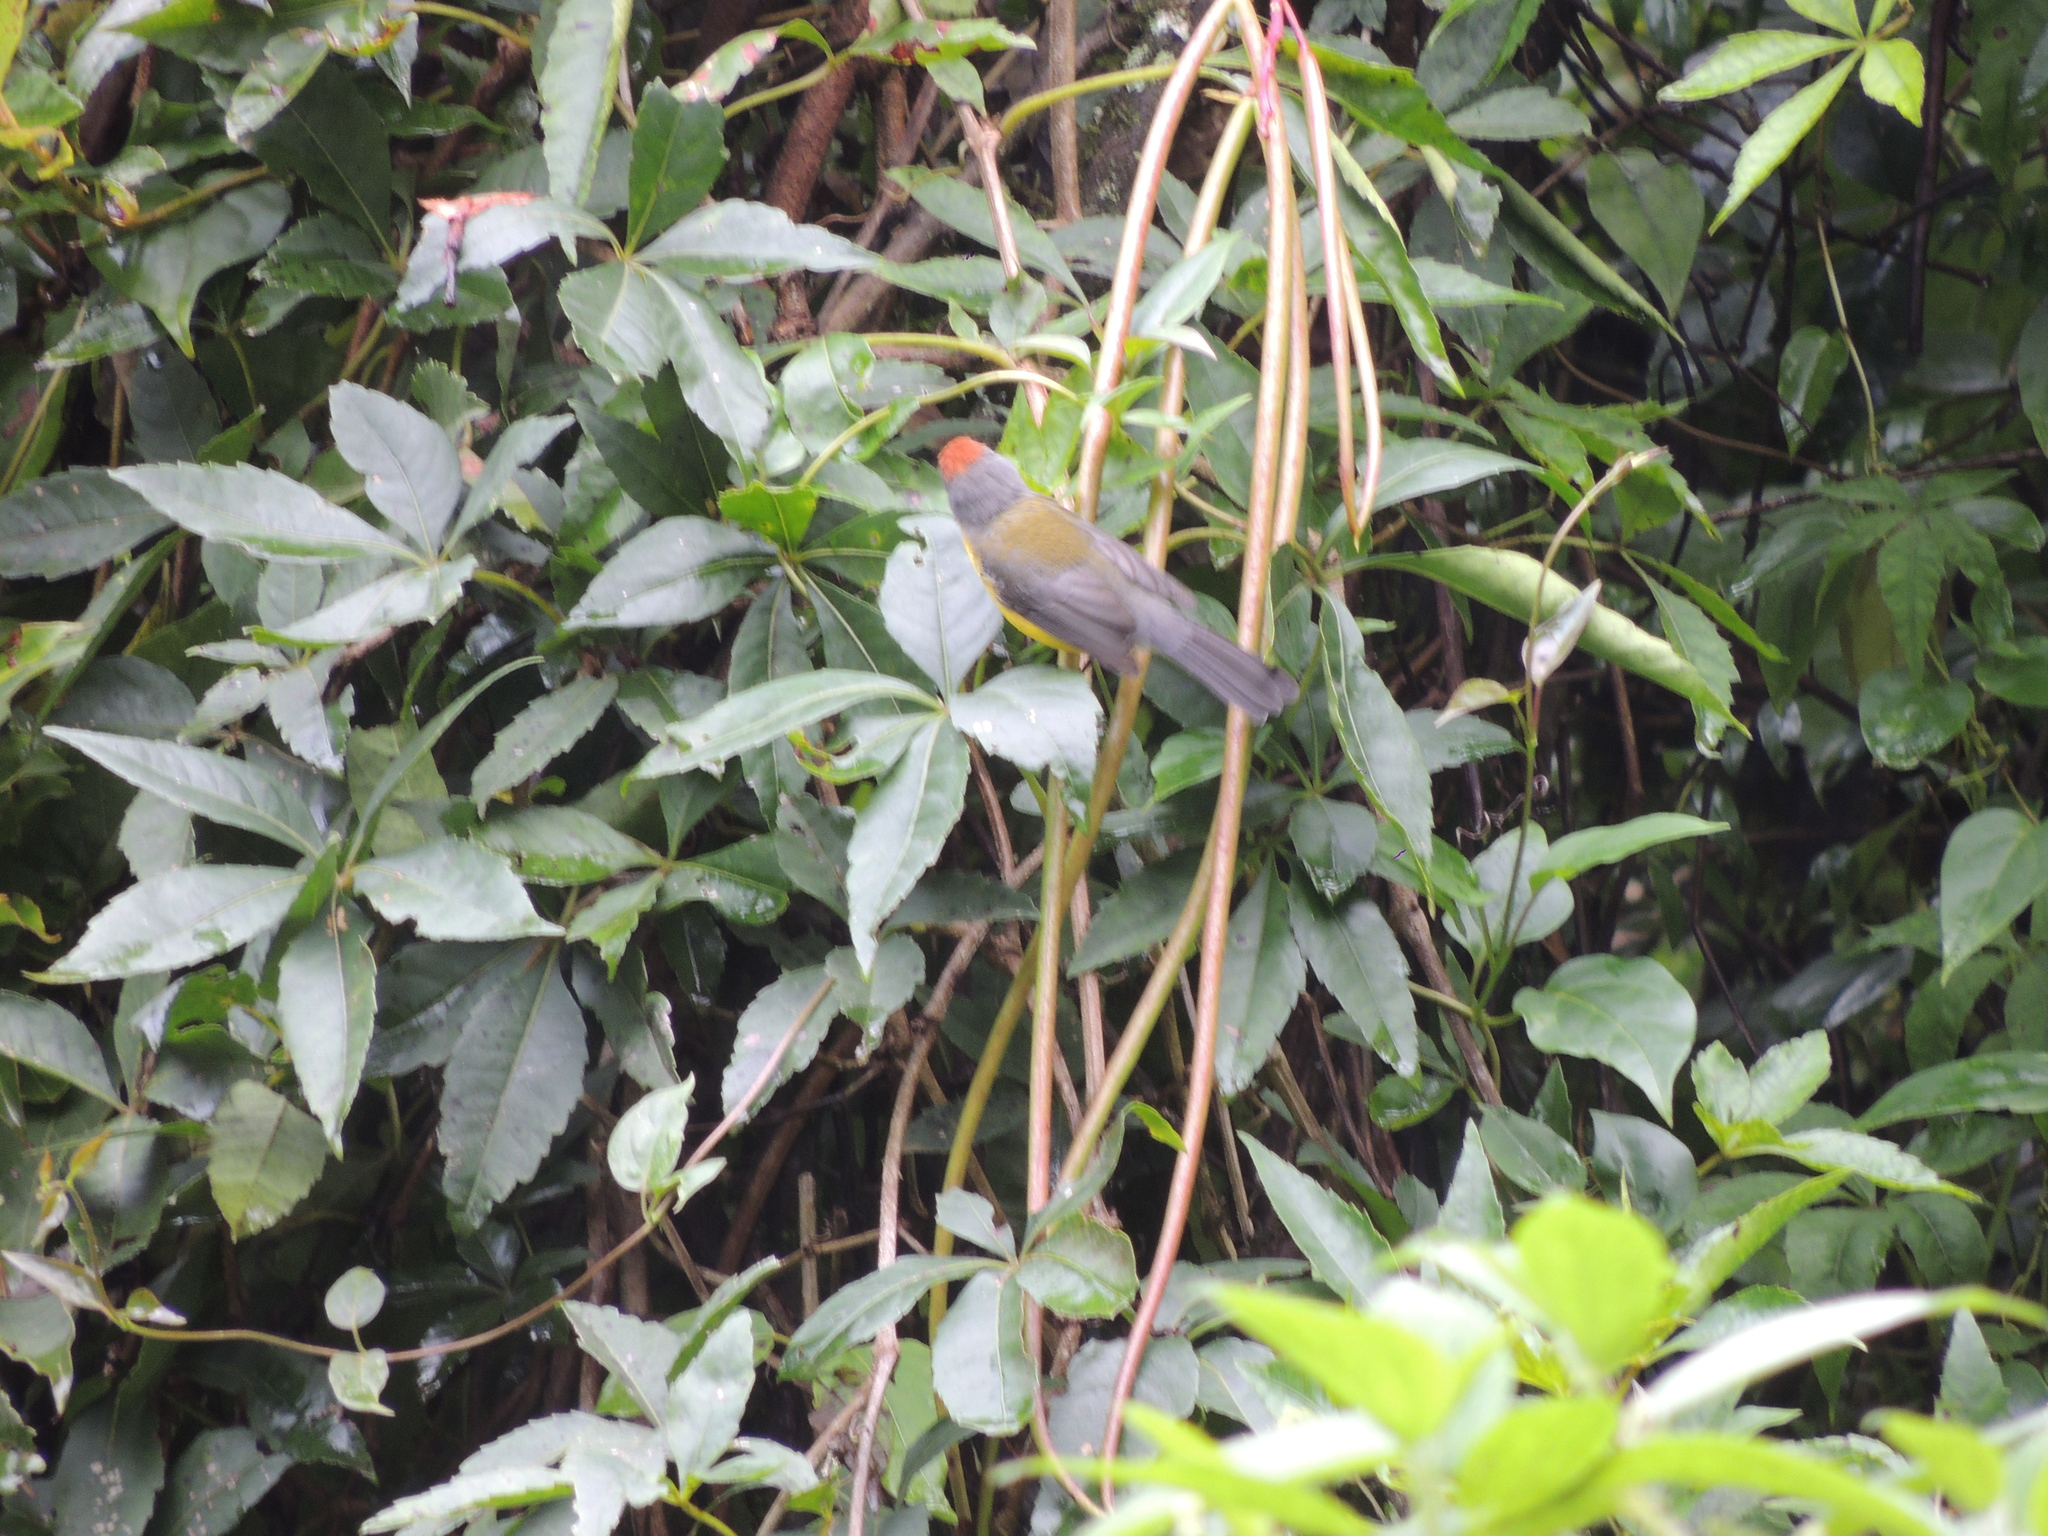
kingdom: Animalia
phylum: Chordata
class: Aves
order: Passeriformes
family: Parulidae
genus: Myioborus
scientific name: Myioborus brunniceps
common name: Brown-capped whitestart
